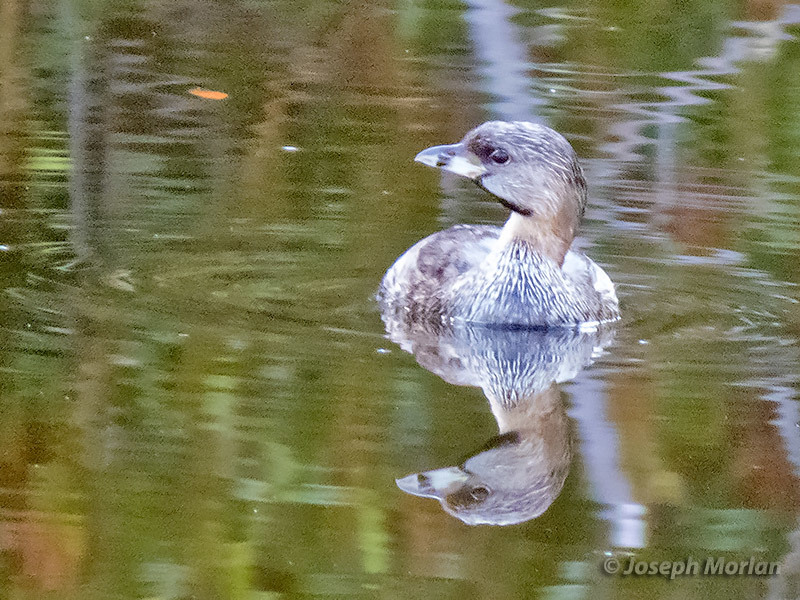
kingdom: Animalia
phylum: Chordata
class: Aves
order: Podicipediformes
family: Podicipedidae
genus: Podilymbus
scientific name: Podilymbus podiceps
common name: Pied-billed grebe
